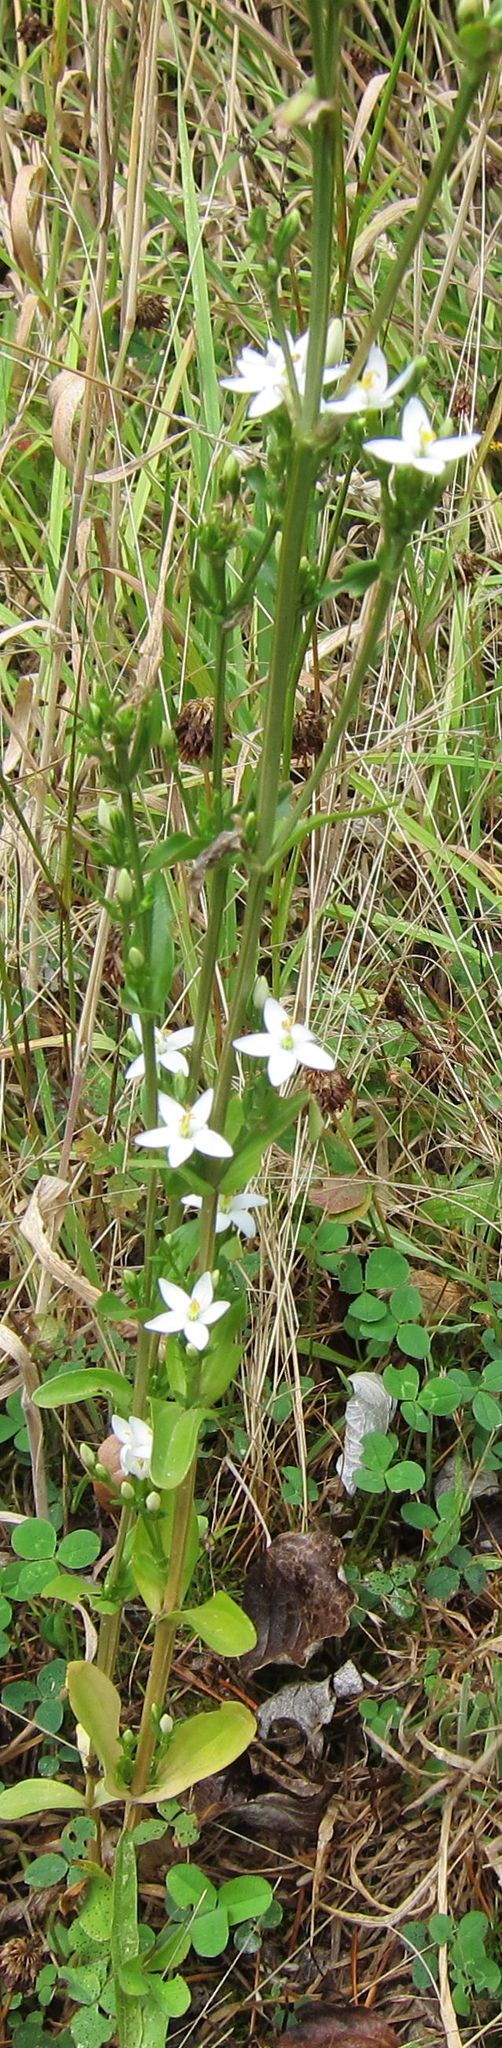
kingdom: Plantae
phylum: Tracheophyta
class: Magnoliopsida
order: Gentianales
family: Gentianaceae
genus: Centaurium
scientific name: Centaurium erythraea
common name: Common centaury
